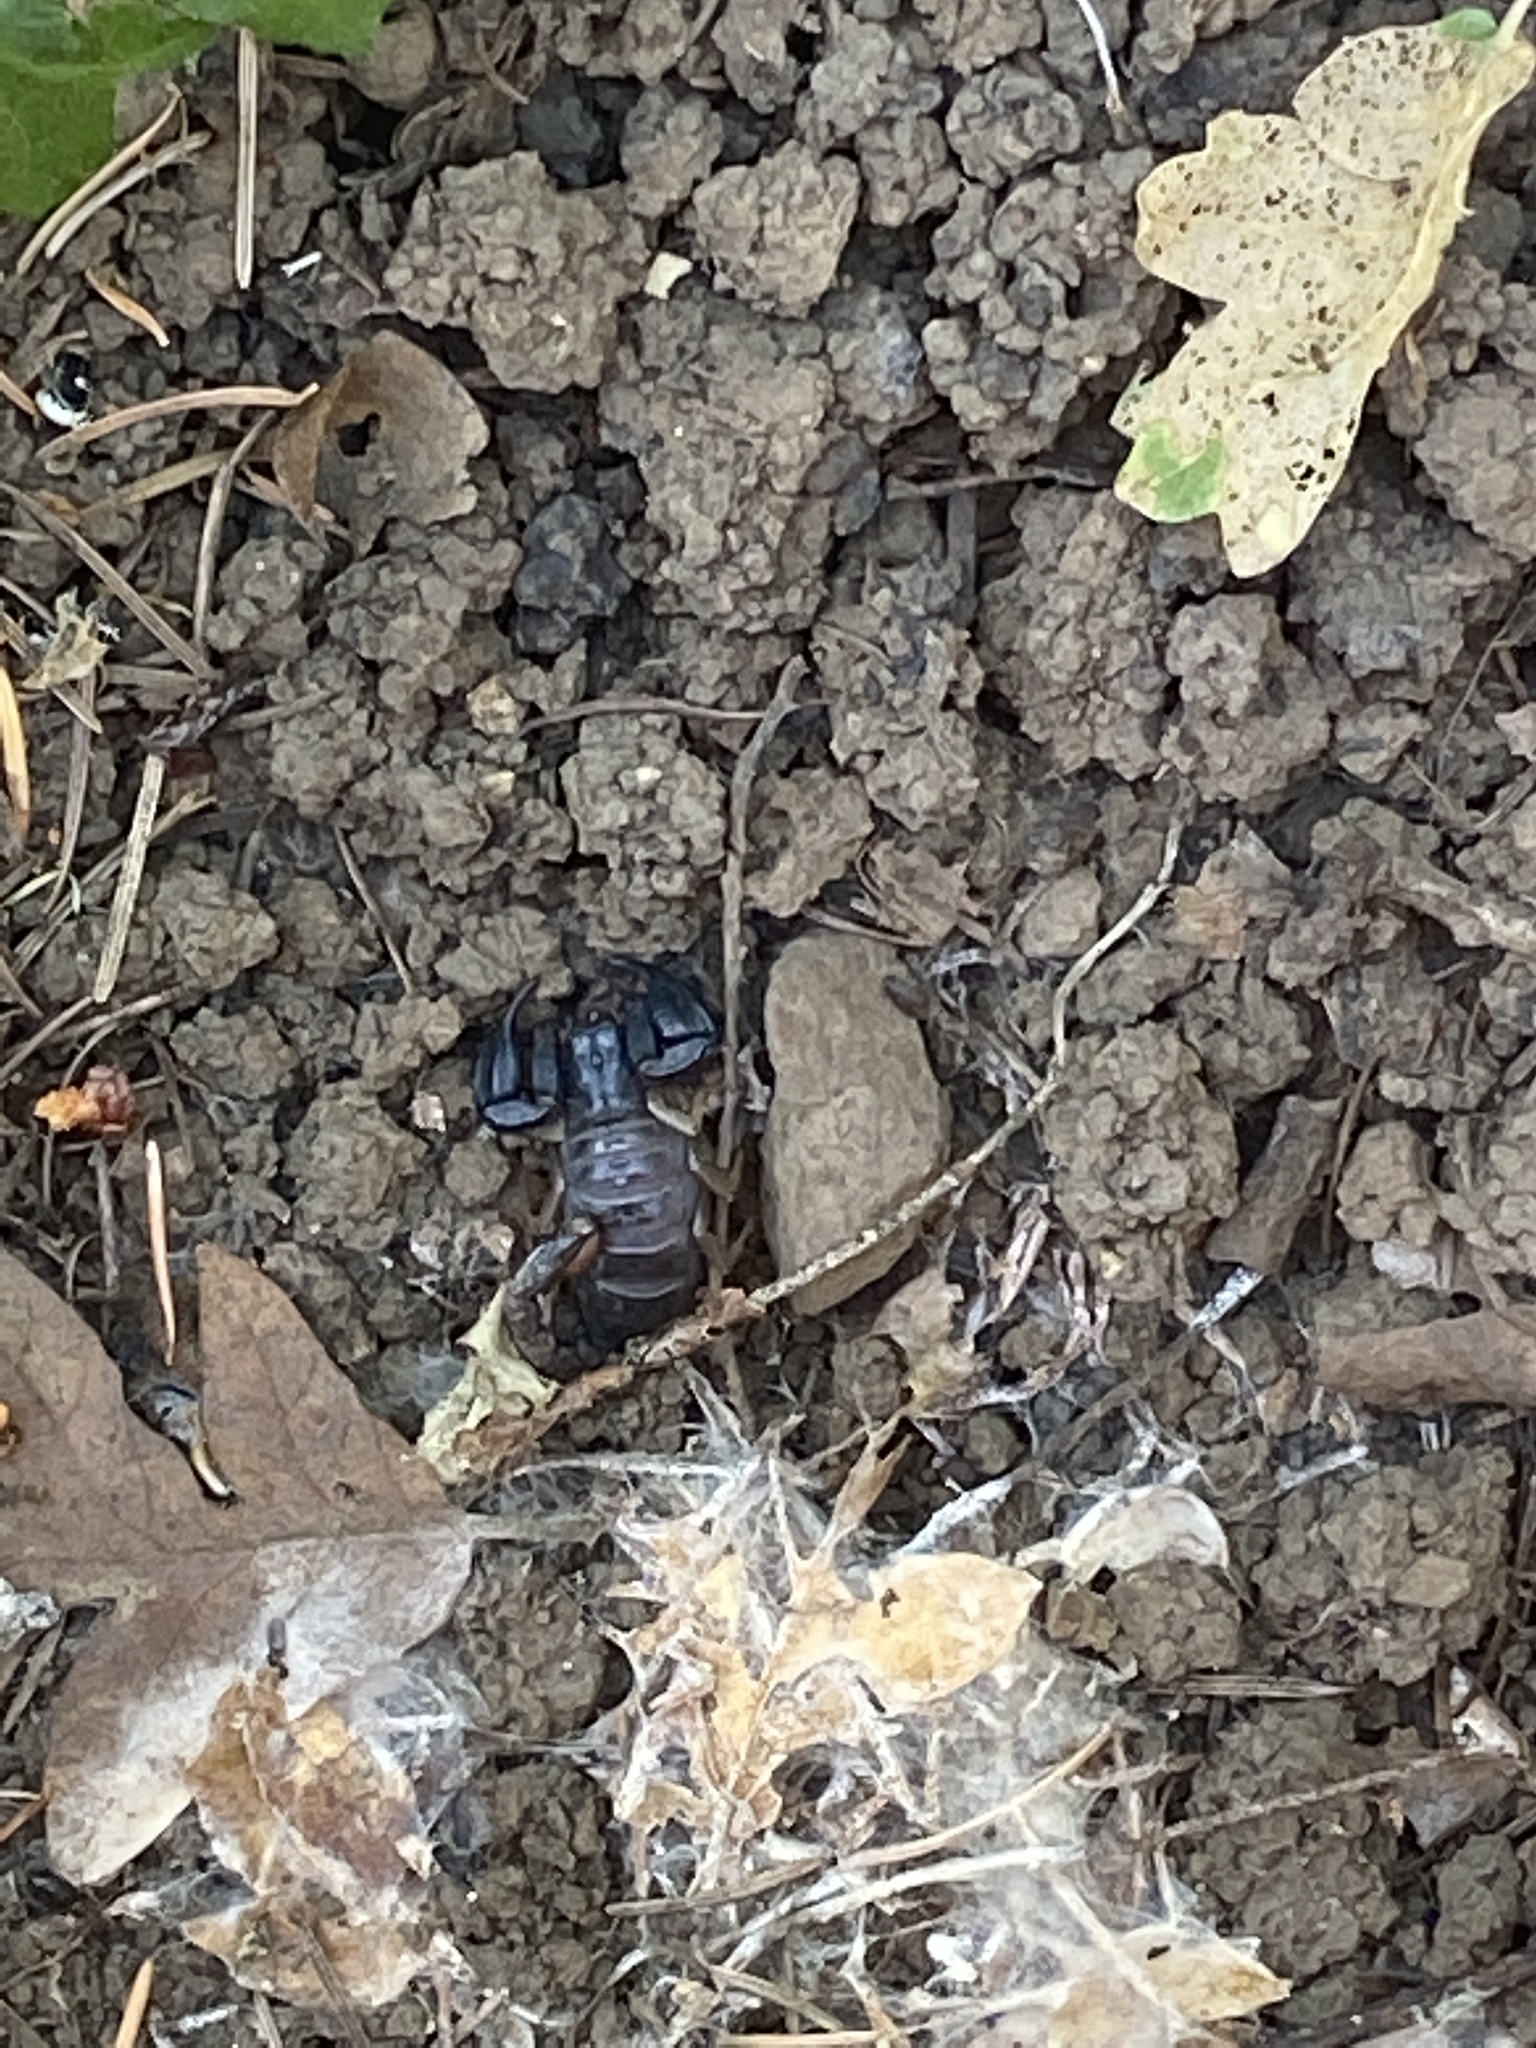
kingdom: Animalia
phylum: Arthropoda
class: Arachnida
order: Scorpiones
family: Chactidae
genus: Uroctonus
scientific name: Uroctonus mordax
